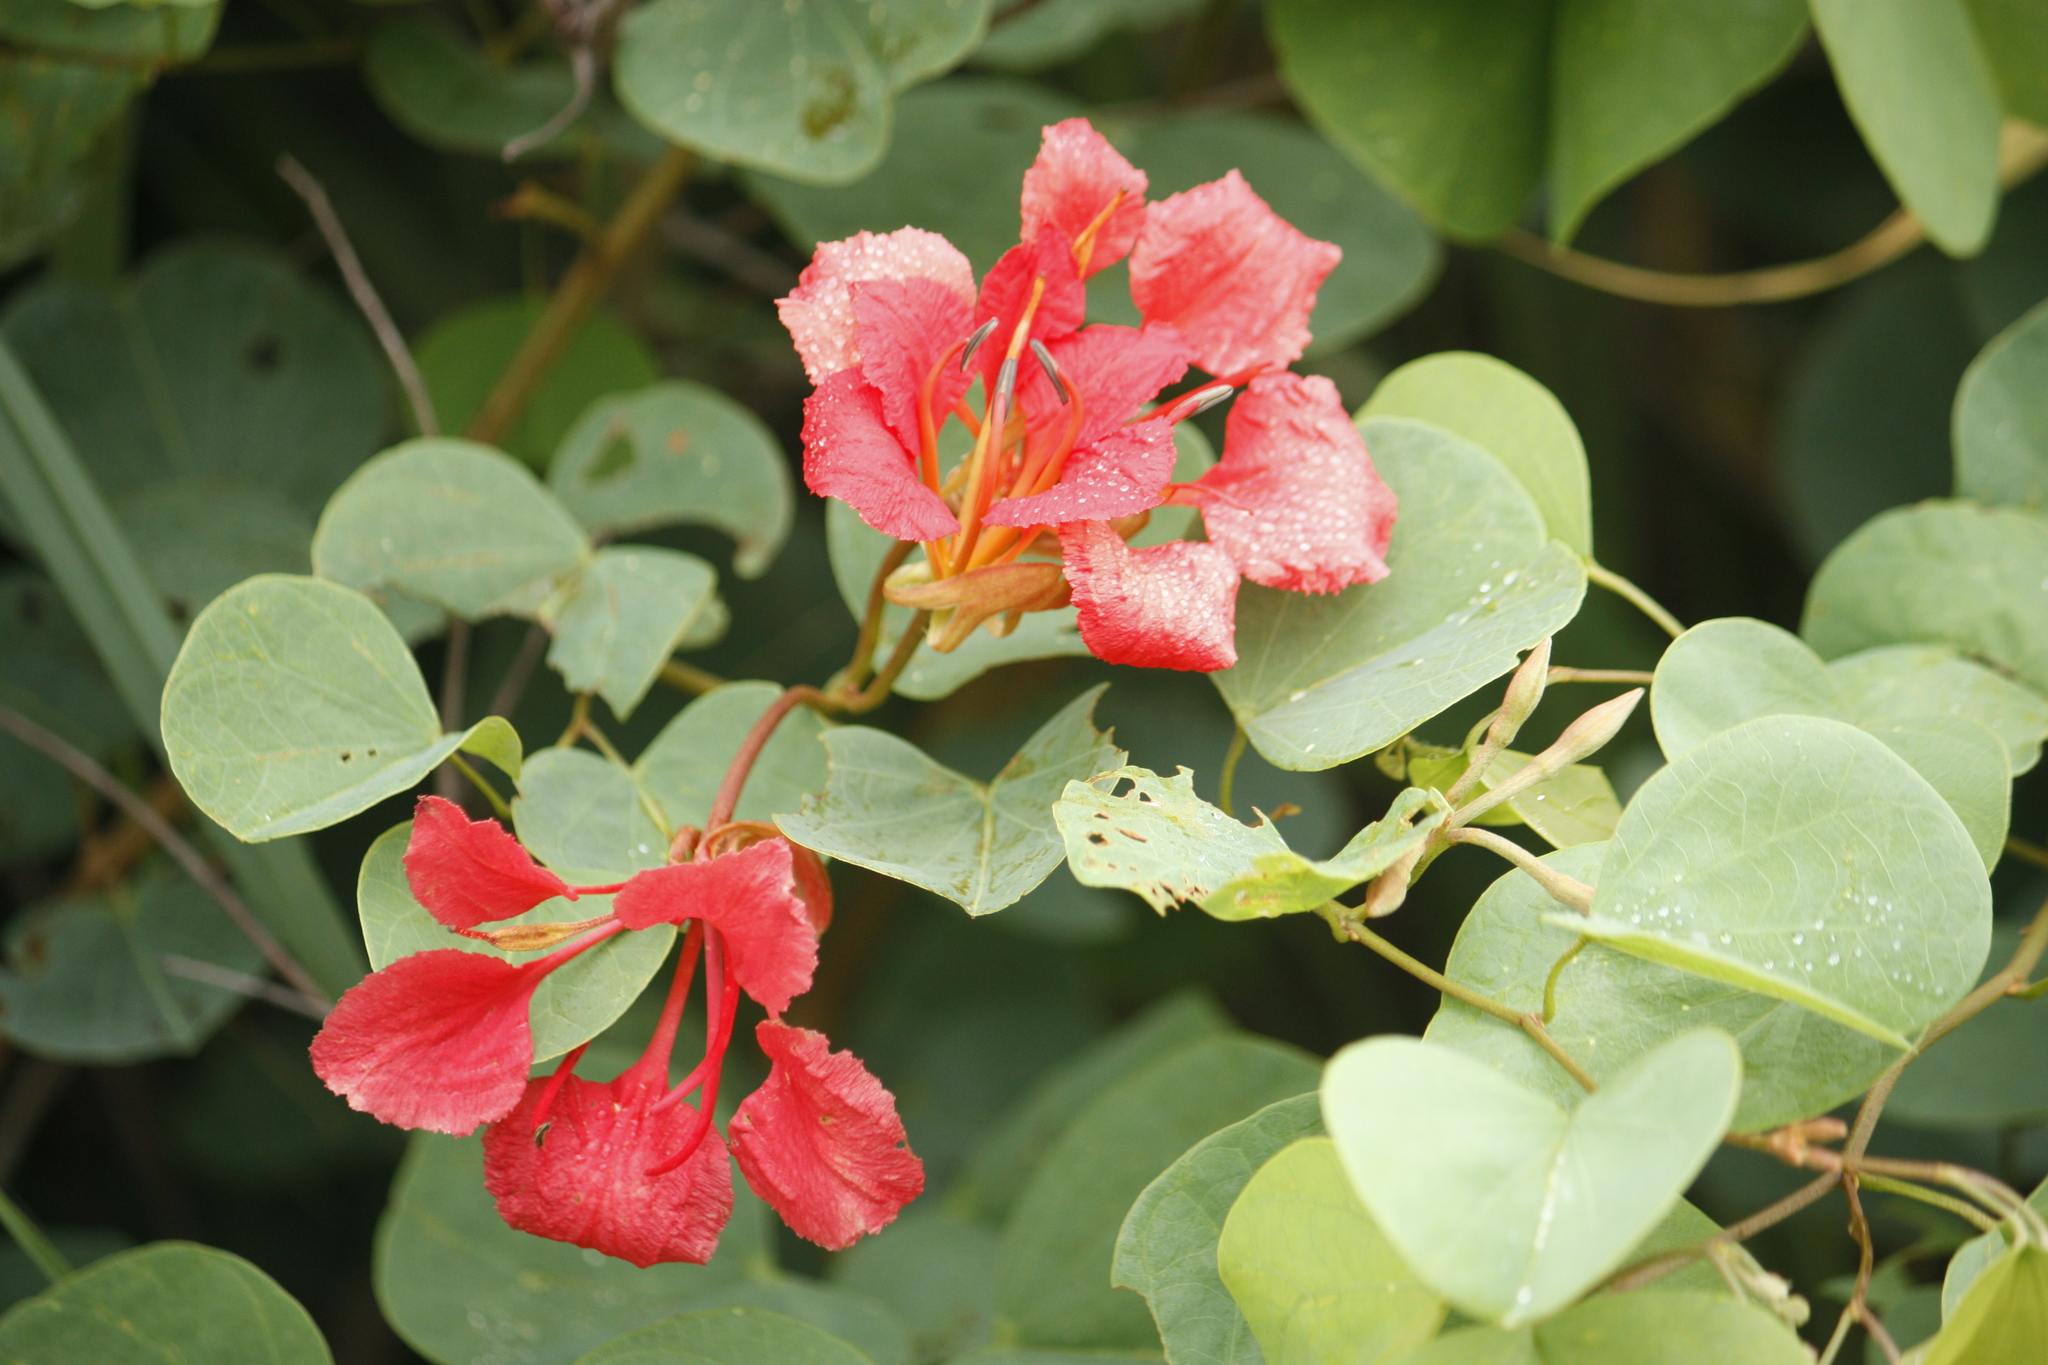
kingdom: Plantae
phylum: Tracheophyta
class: Magnoliopsida
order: Fabales
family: Fabaceae
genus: Bauhinia
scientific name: Bauhinia galpinii
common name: African plume
